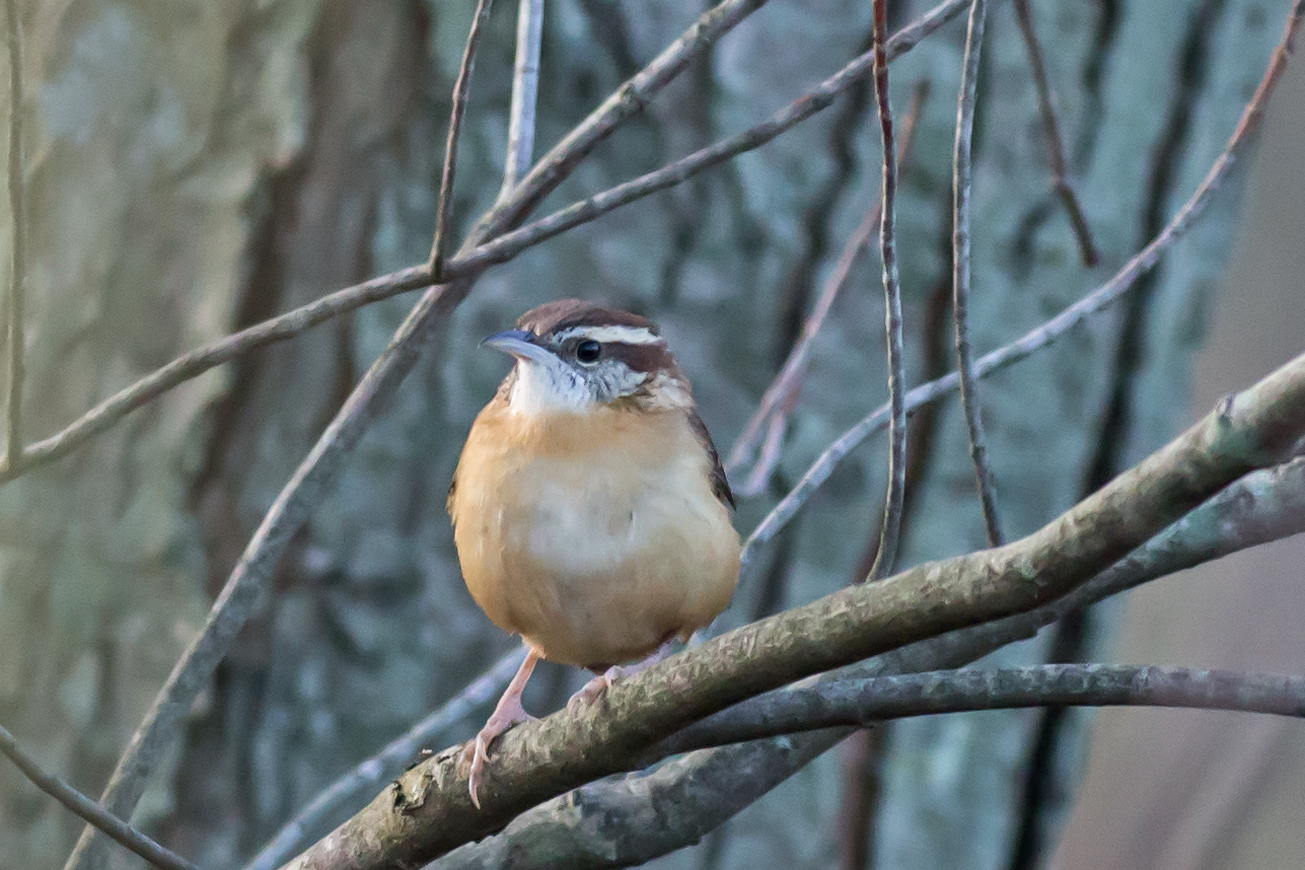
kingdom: Animalia
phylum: Chordata
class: Aves
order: Passeriformes
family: Troglodytidae
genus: Thryothorus
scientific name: Thryothorus ludovicianus
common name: Carolina wren
